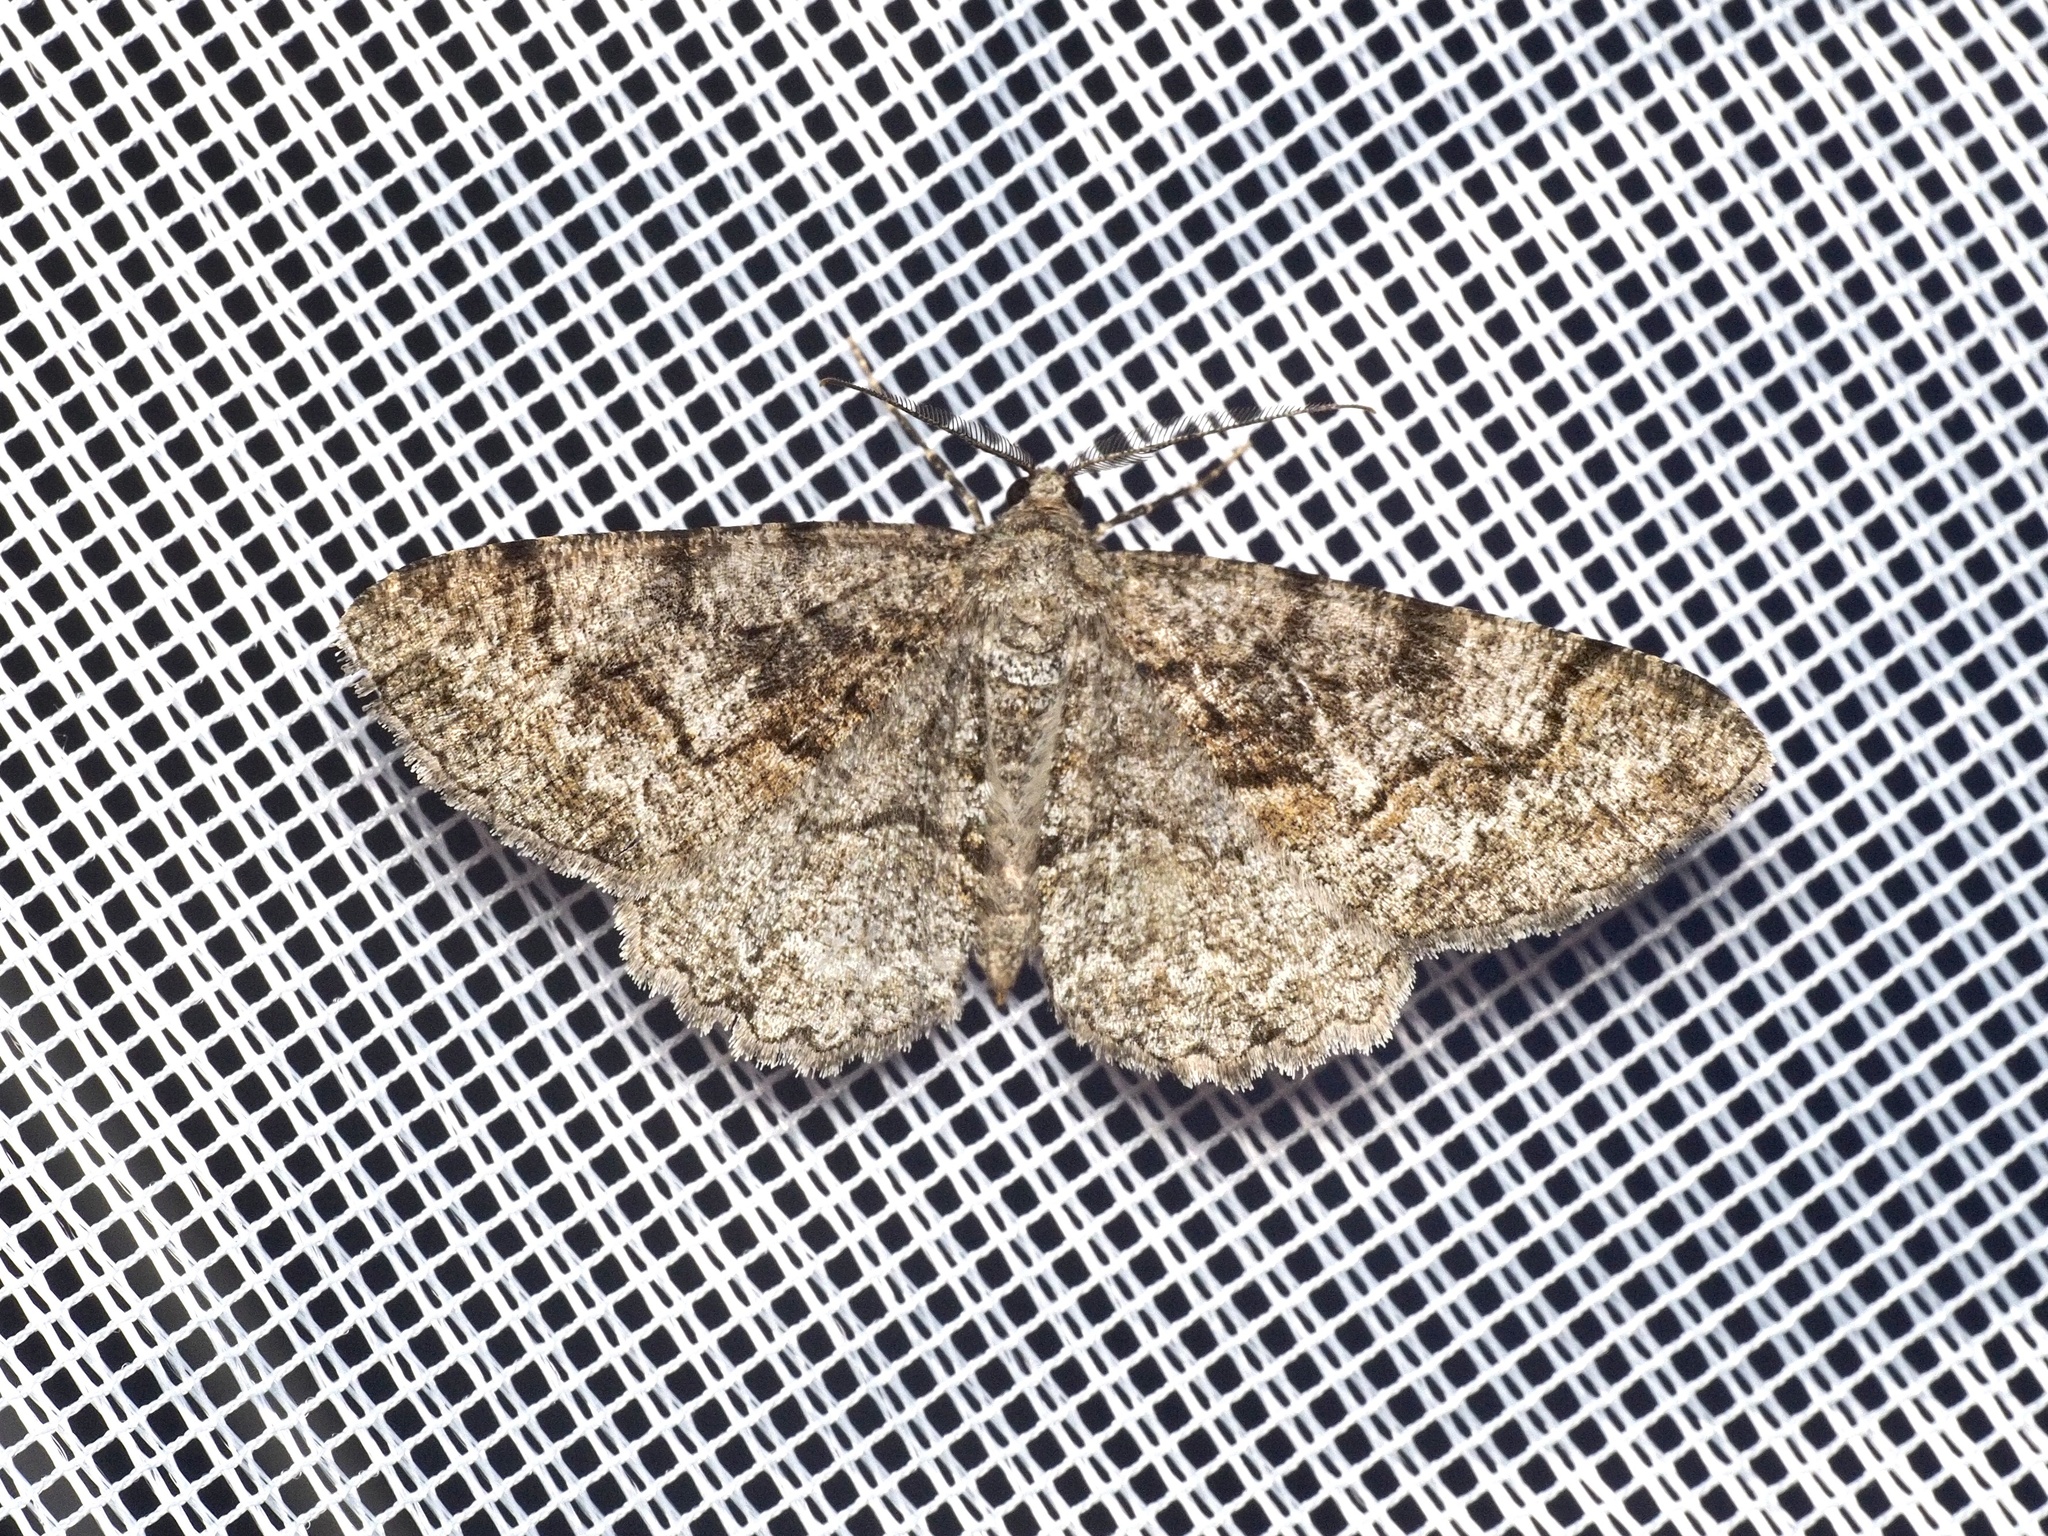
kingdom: Animalia
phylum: Arthropoda
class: Insecta
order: Lepidoptera
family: Geometridae
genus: Alcis
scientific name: Alcis repandata
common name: Mottled beauty
